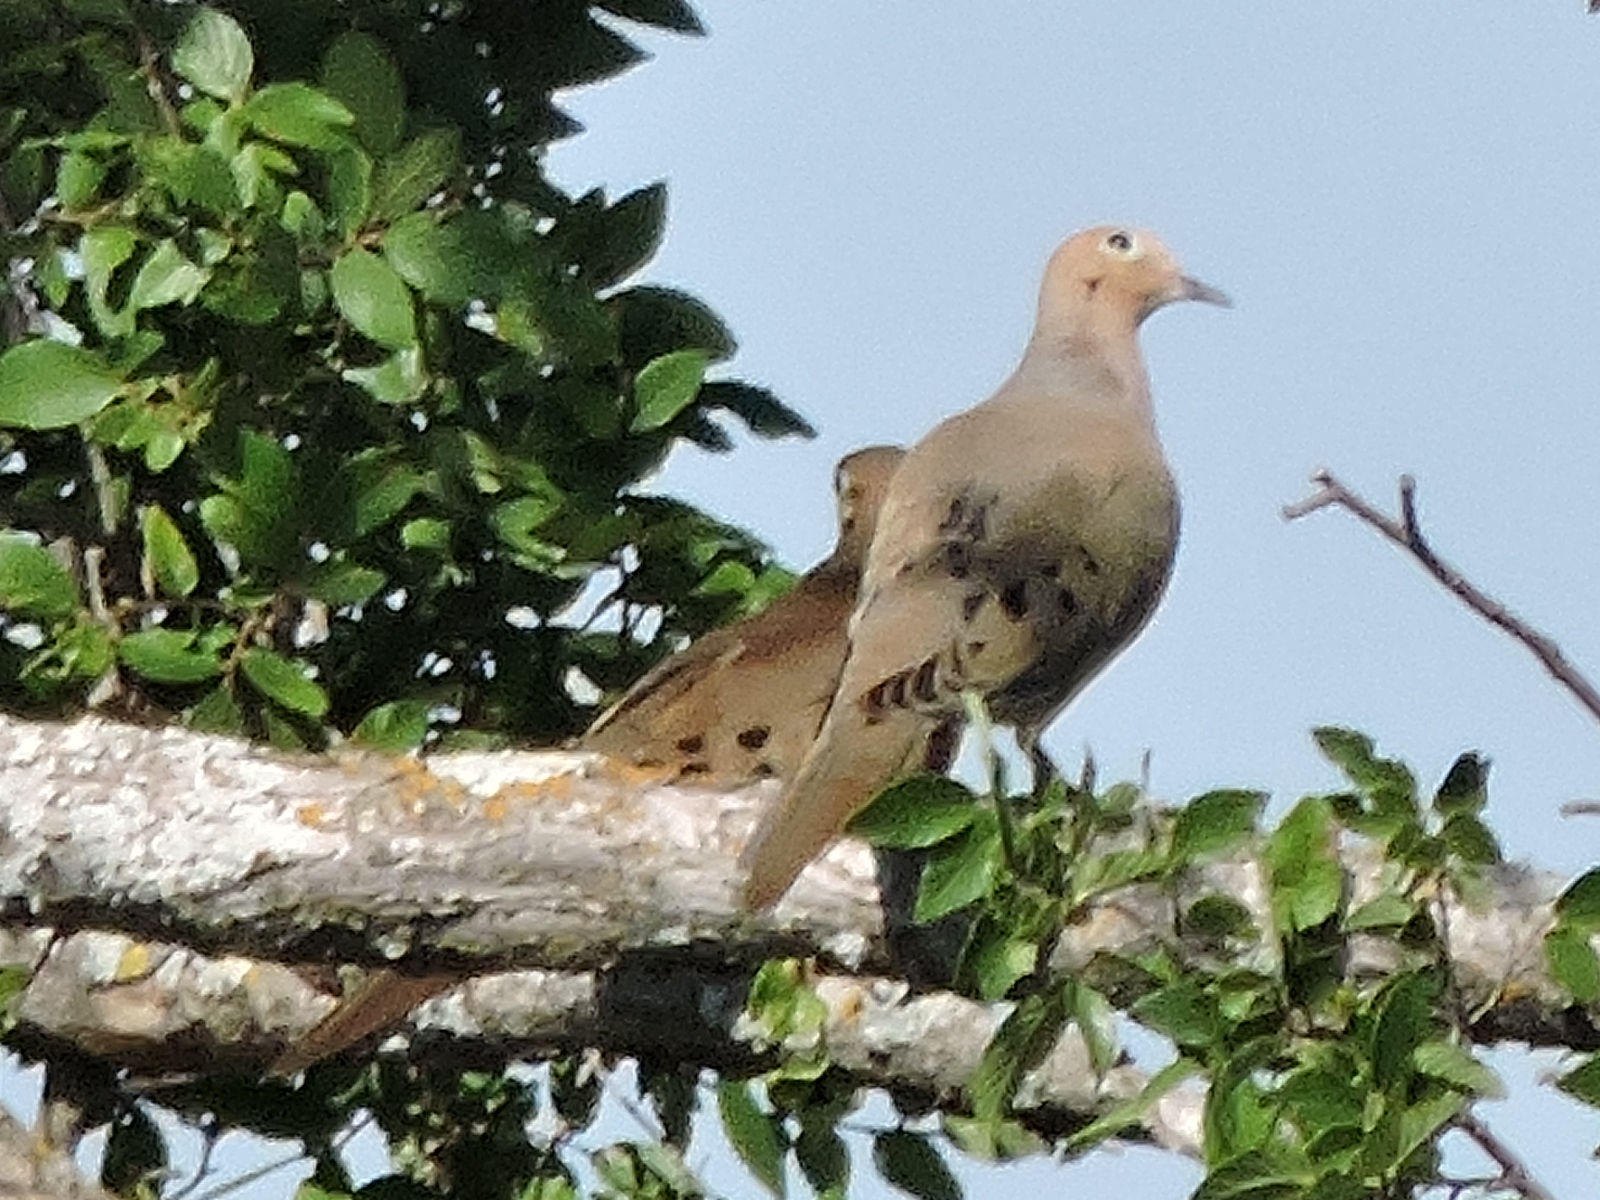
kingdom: Animalia
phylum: Chordata
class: Aves
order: Columbiformes
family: Columbidae
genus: Zenaida
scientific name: Zenaida macroura
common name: Mourning dove
